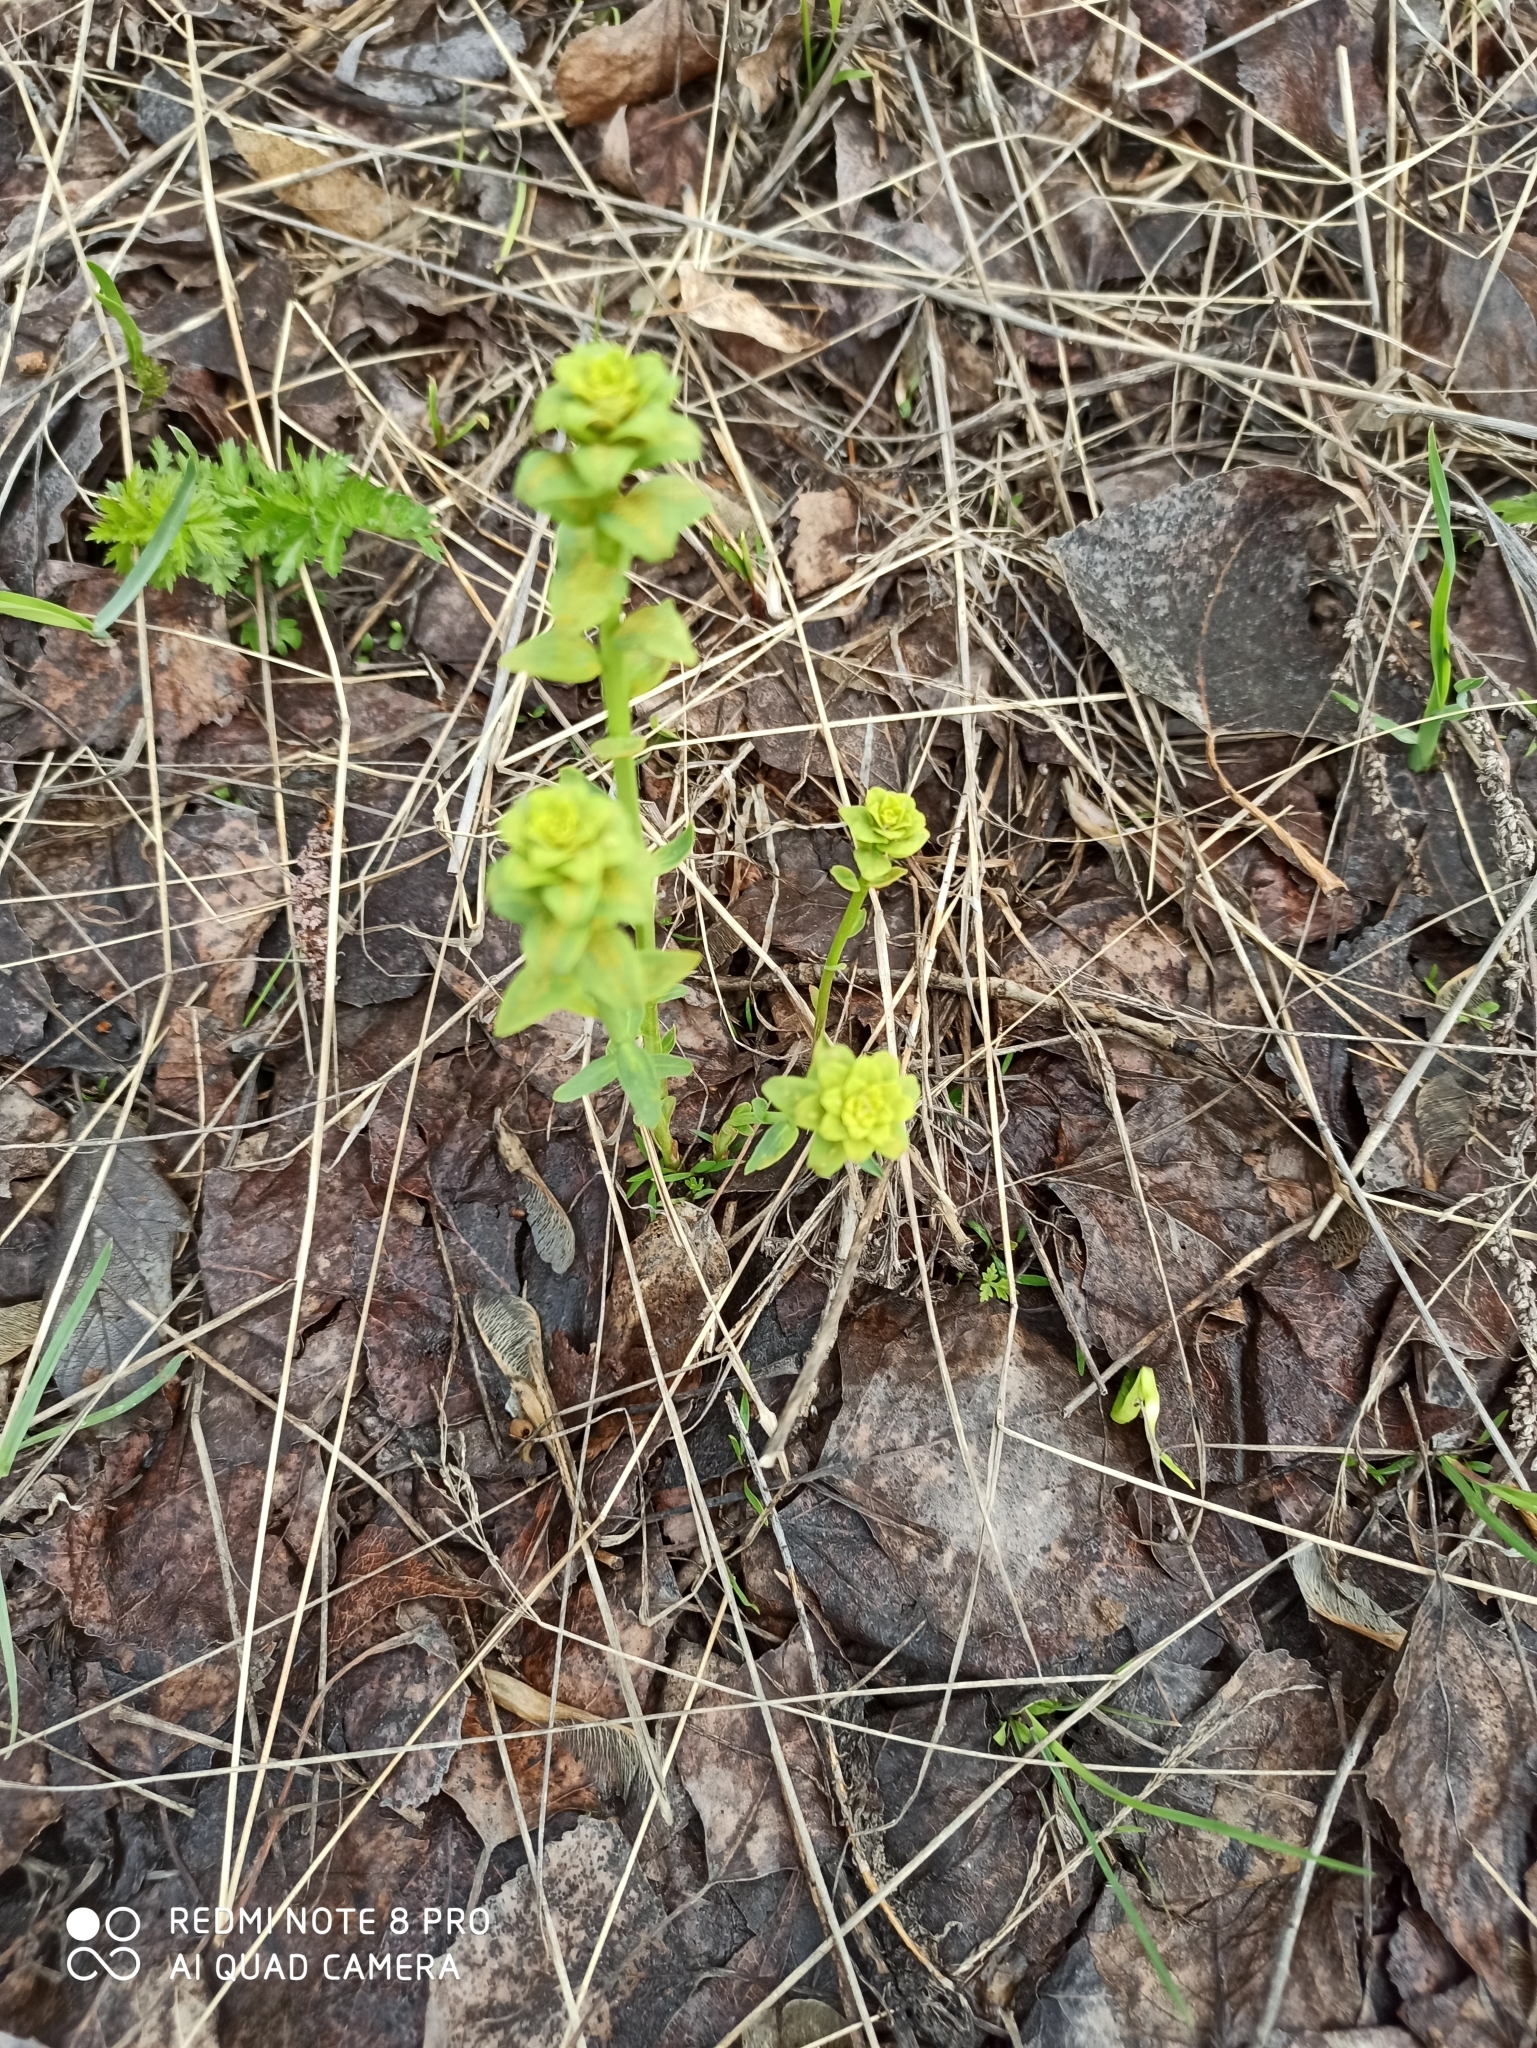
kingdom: Plantae
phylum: Tracheophyta
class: Magnoliopsida
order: Malpighiales
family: Euphorbiaceae
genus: Euphorbia
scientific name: Euphorbia virgata
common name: Leafy spurge
